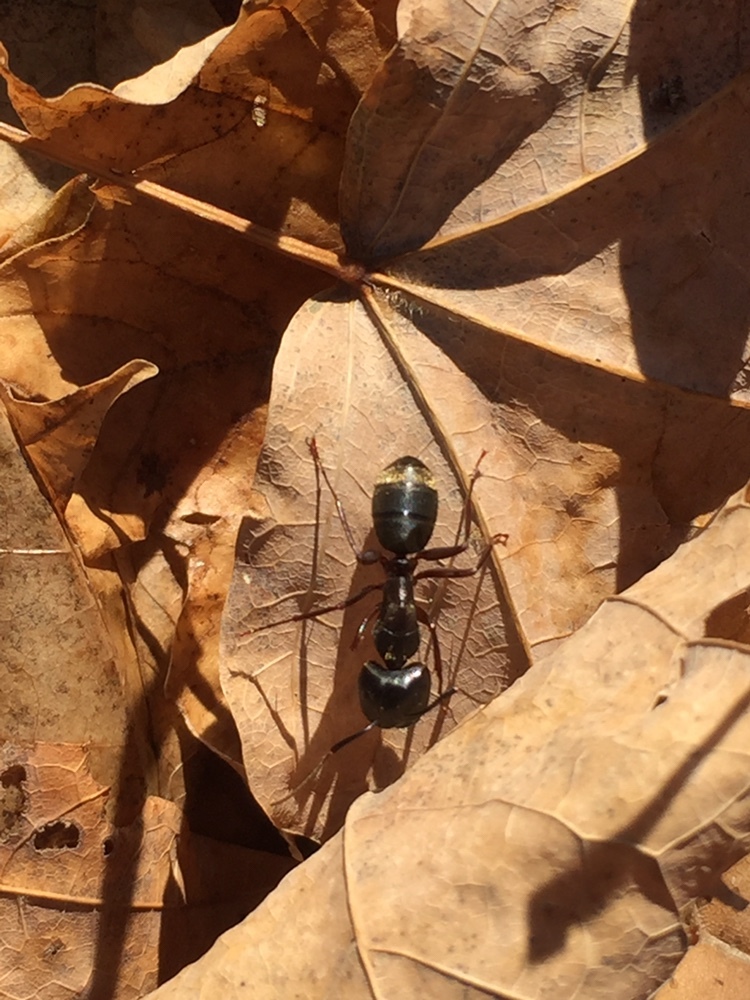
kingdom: Animalia
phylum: Arthropoda
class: Insecta
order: Hymenoptera
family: Formicidae
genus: Camponotus
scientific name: Camponotus pennsylvanicus
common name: Black carpenter ant
